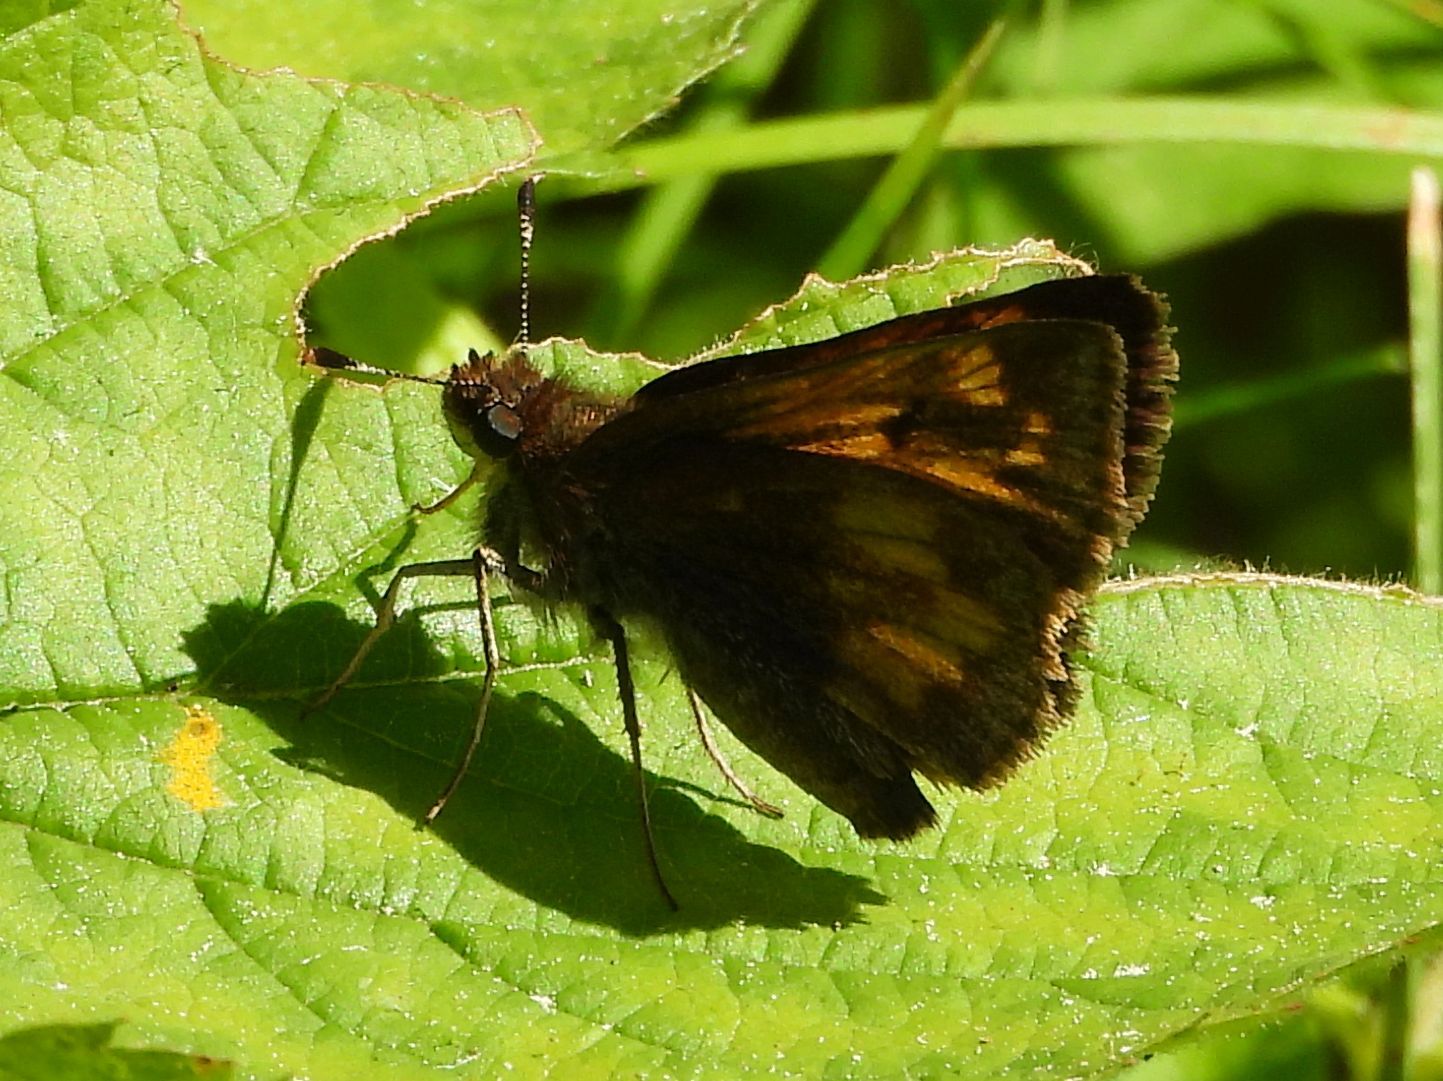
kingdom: Animalia
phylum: Arthropoda
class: Insecta
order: Lepidoptera
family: Hesperiidae
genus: Lon
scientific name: Lon hobomok
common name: Hobomok skipper
